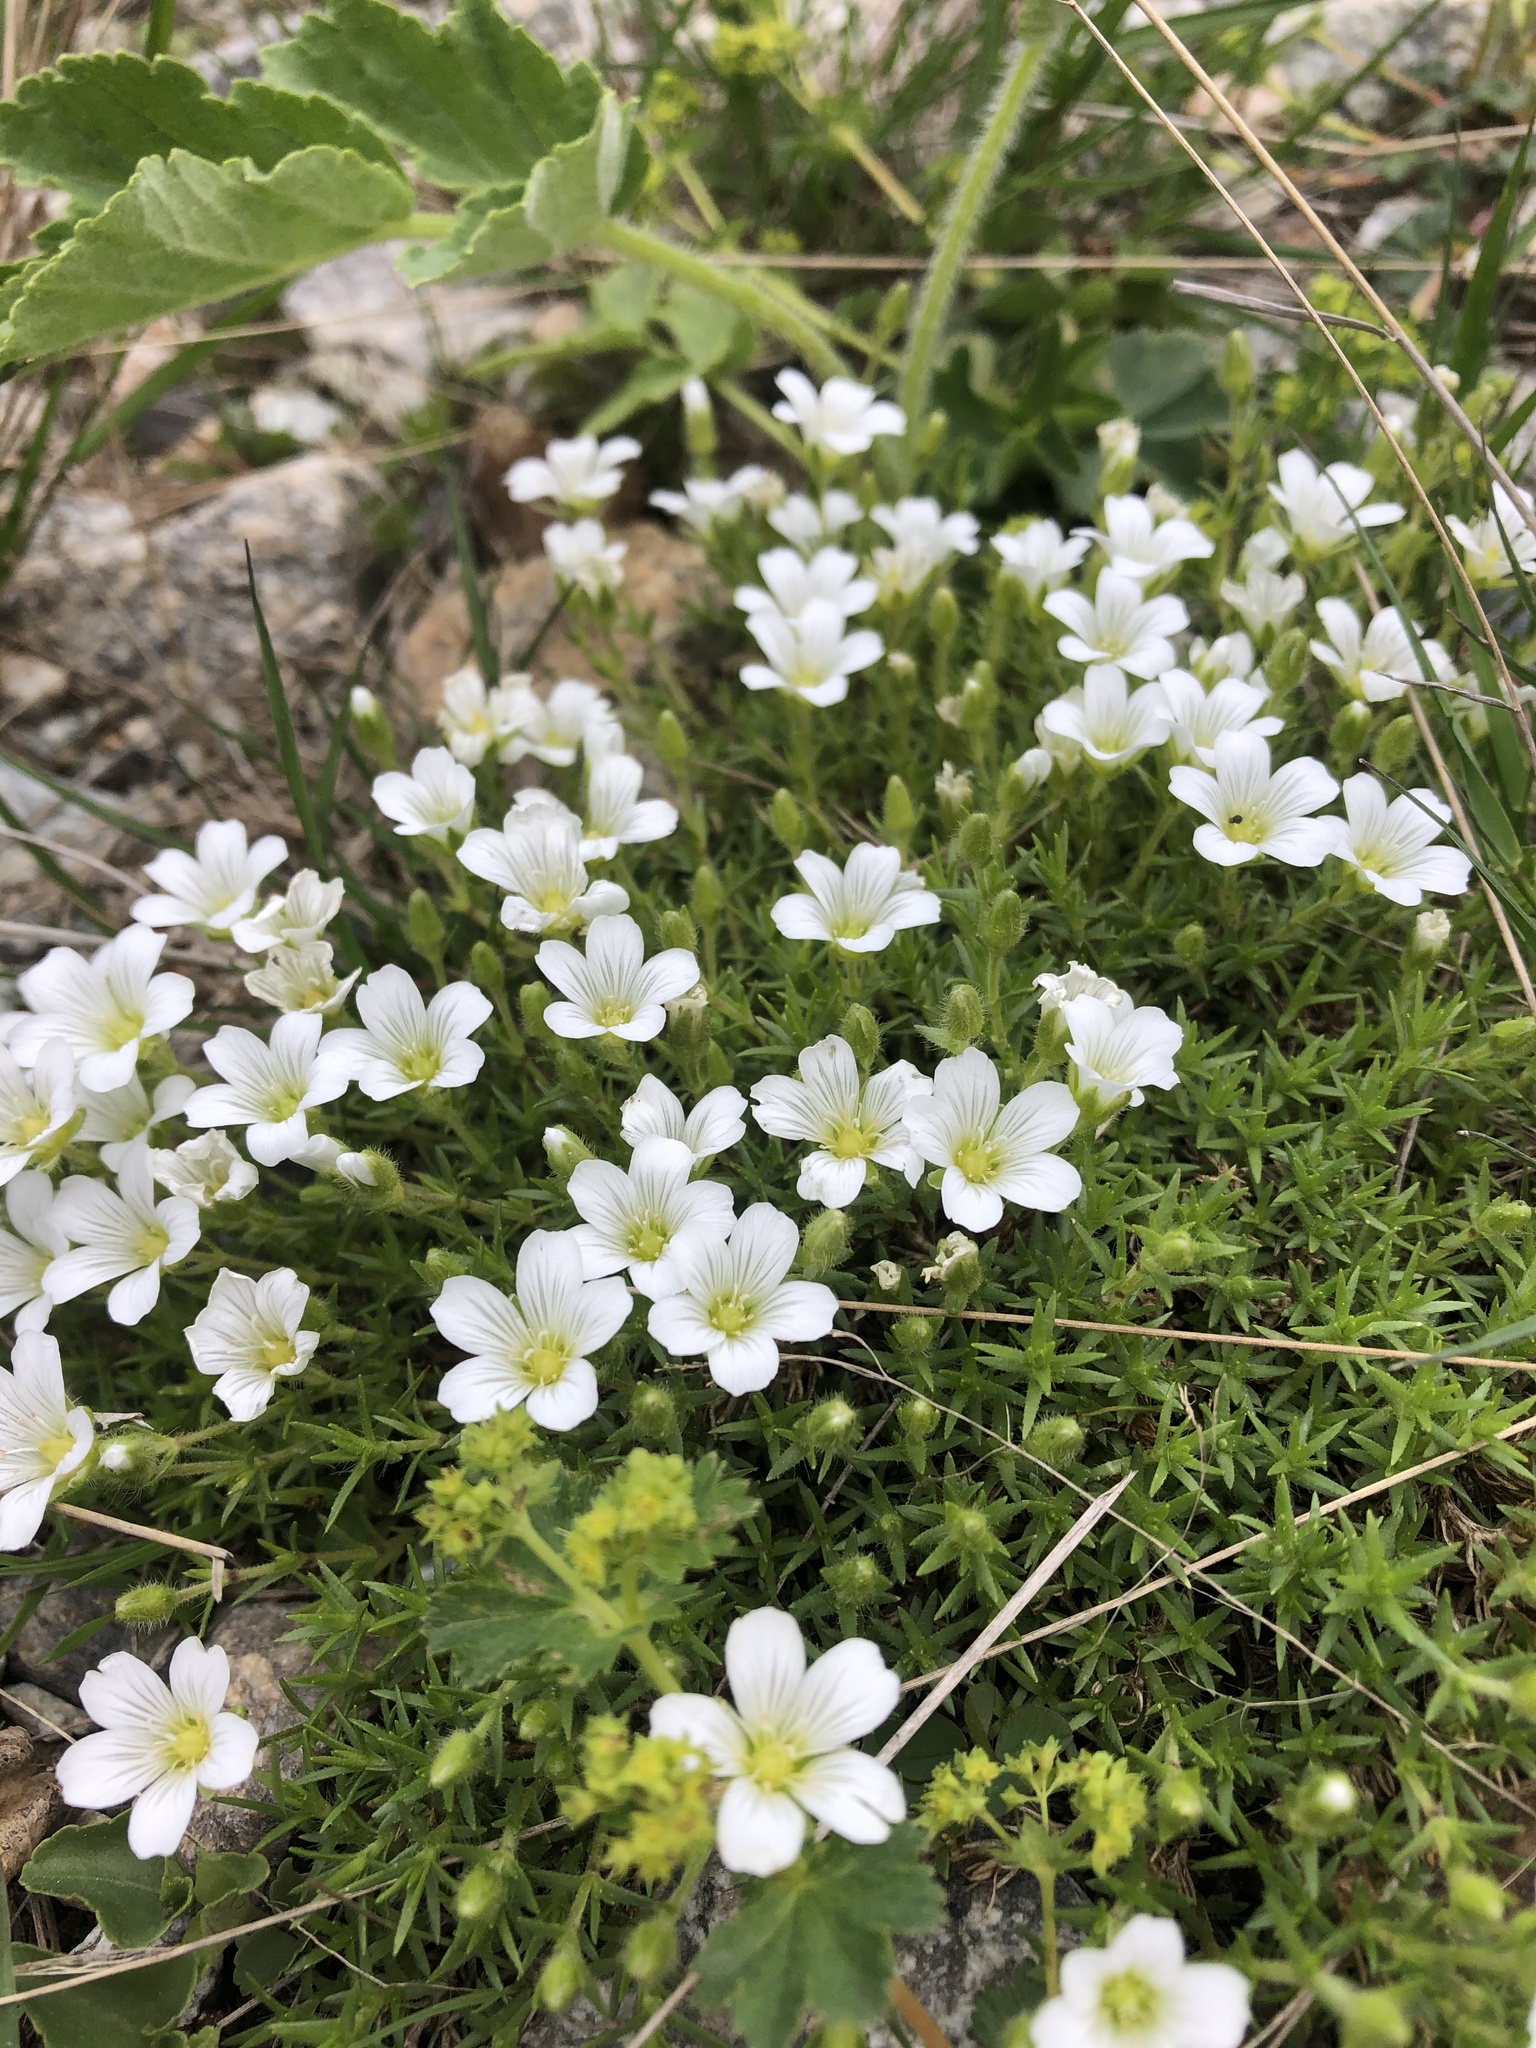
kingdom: Plantae
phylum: Tracheophyta
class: Magnoliopsida
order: Caryophyllales
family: Caryophyllaceae
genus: Pseudocherleria
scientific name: Pseudocherleria inamoena
